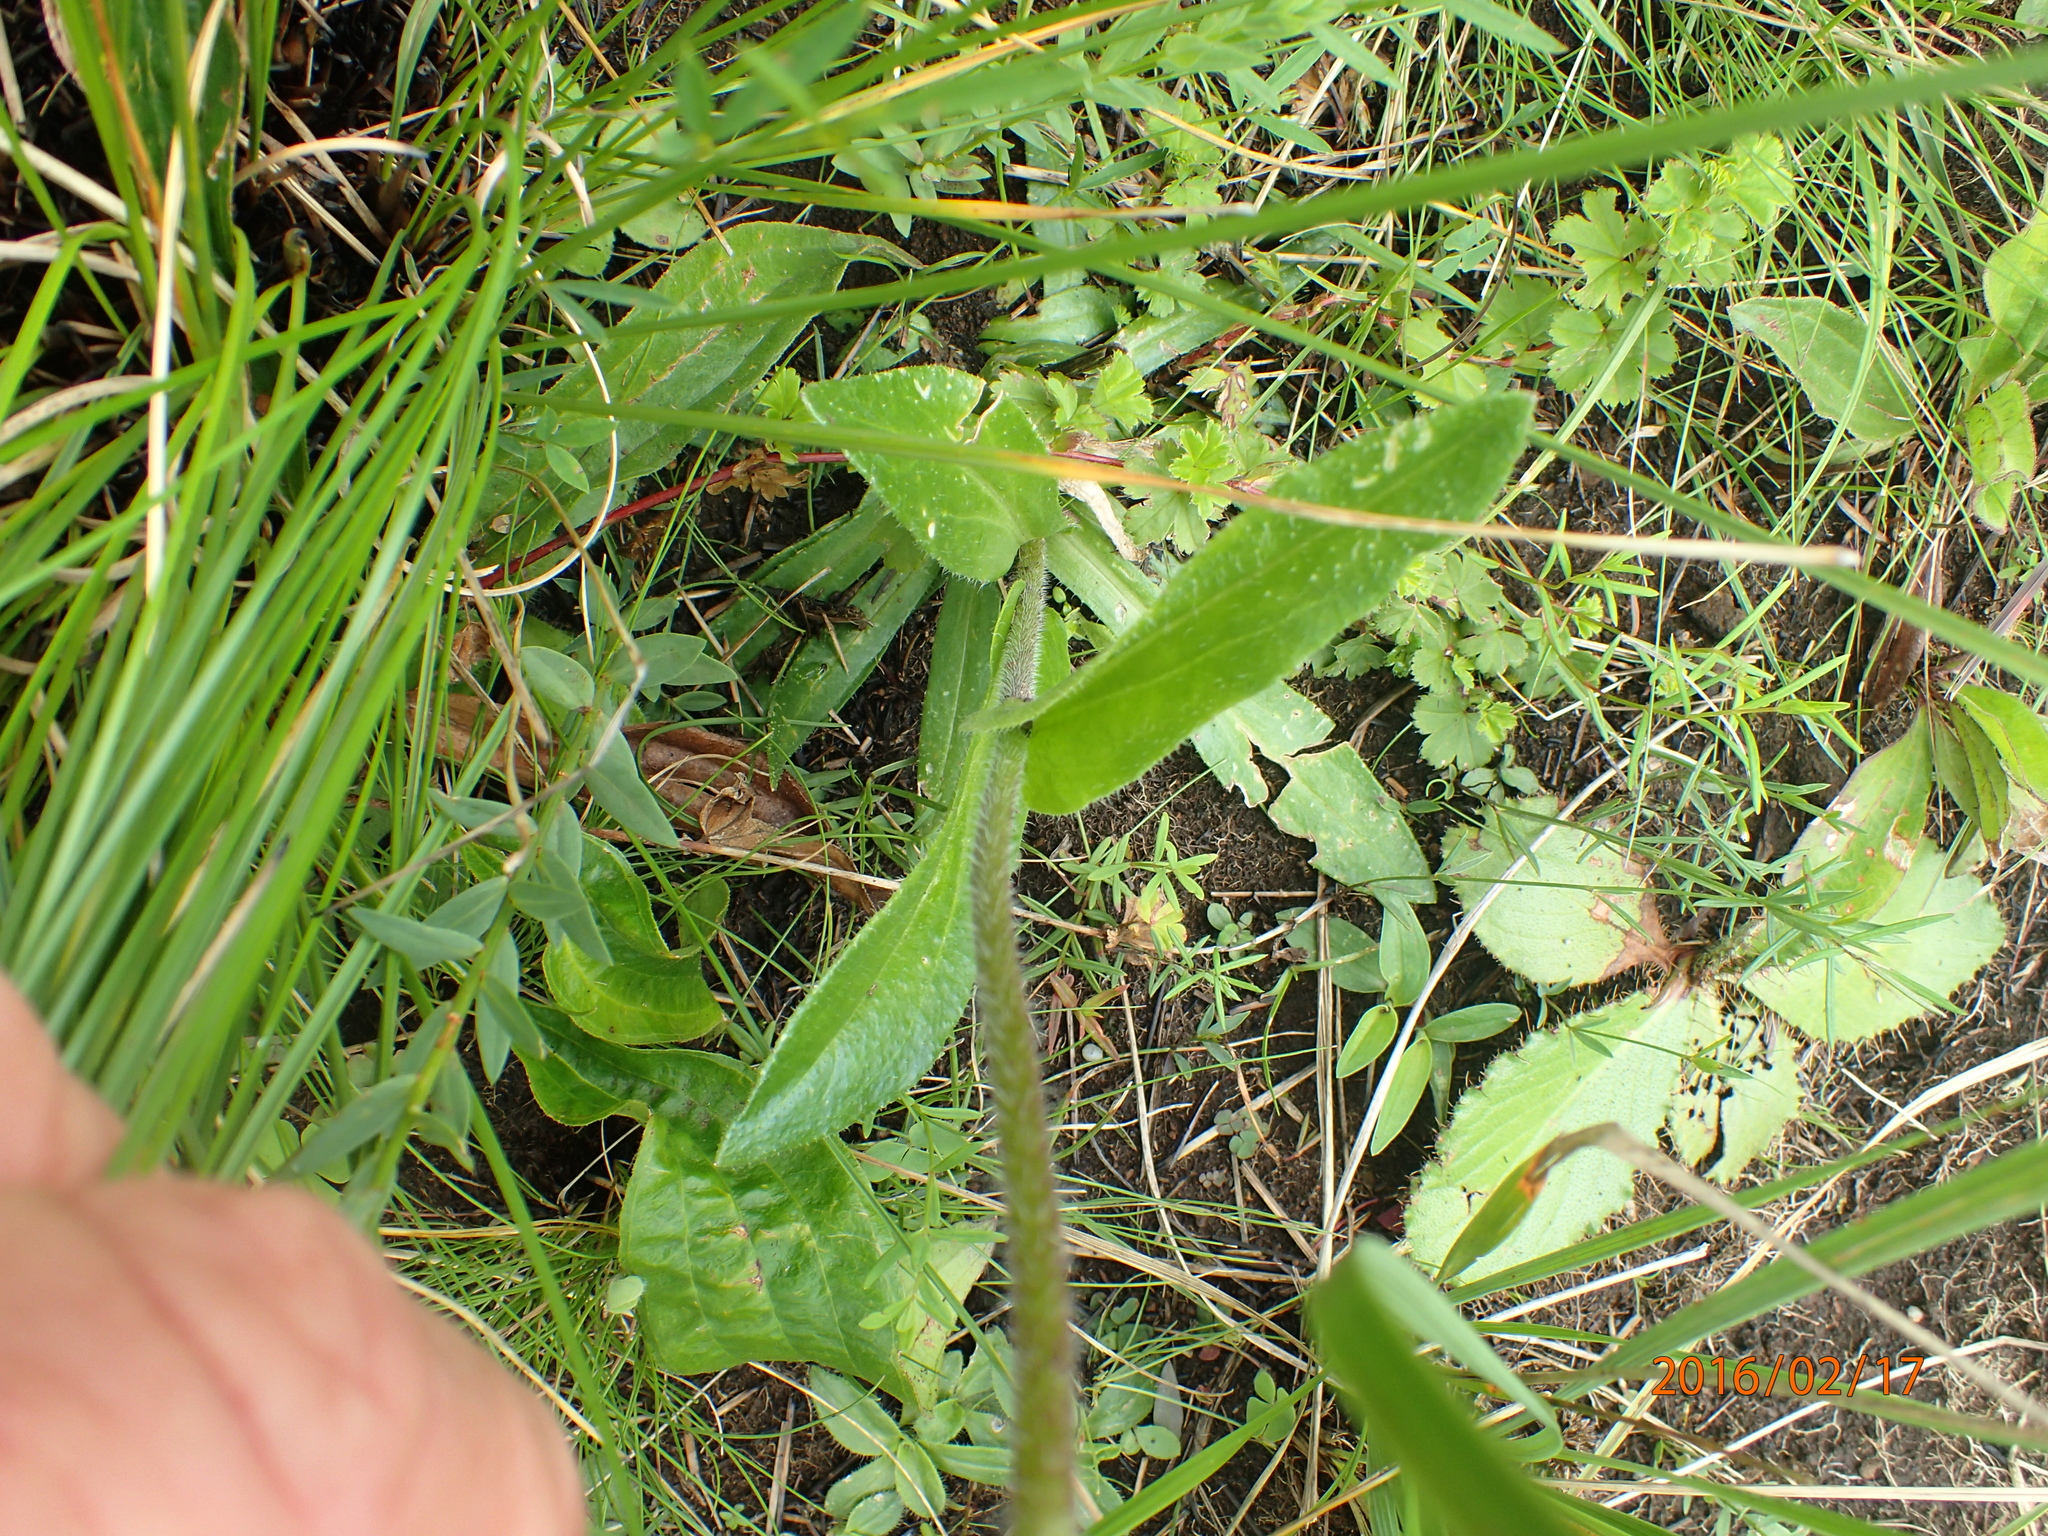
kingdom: Plantae
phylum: Tracheophyta
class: Magnoliopsida
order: Asterales
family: Asteraceae
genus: Senecio
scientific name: Senecio speciosus
